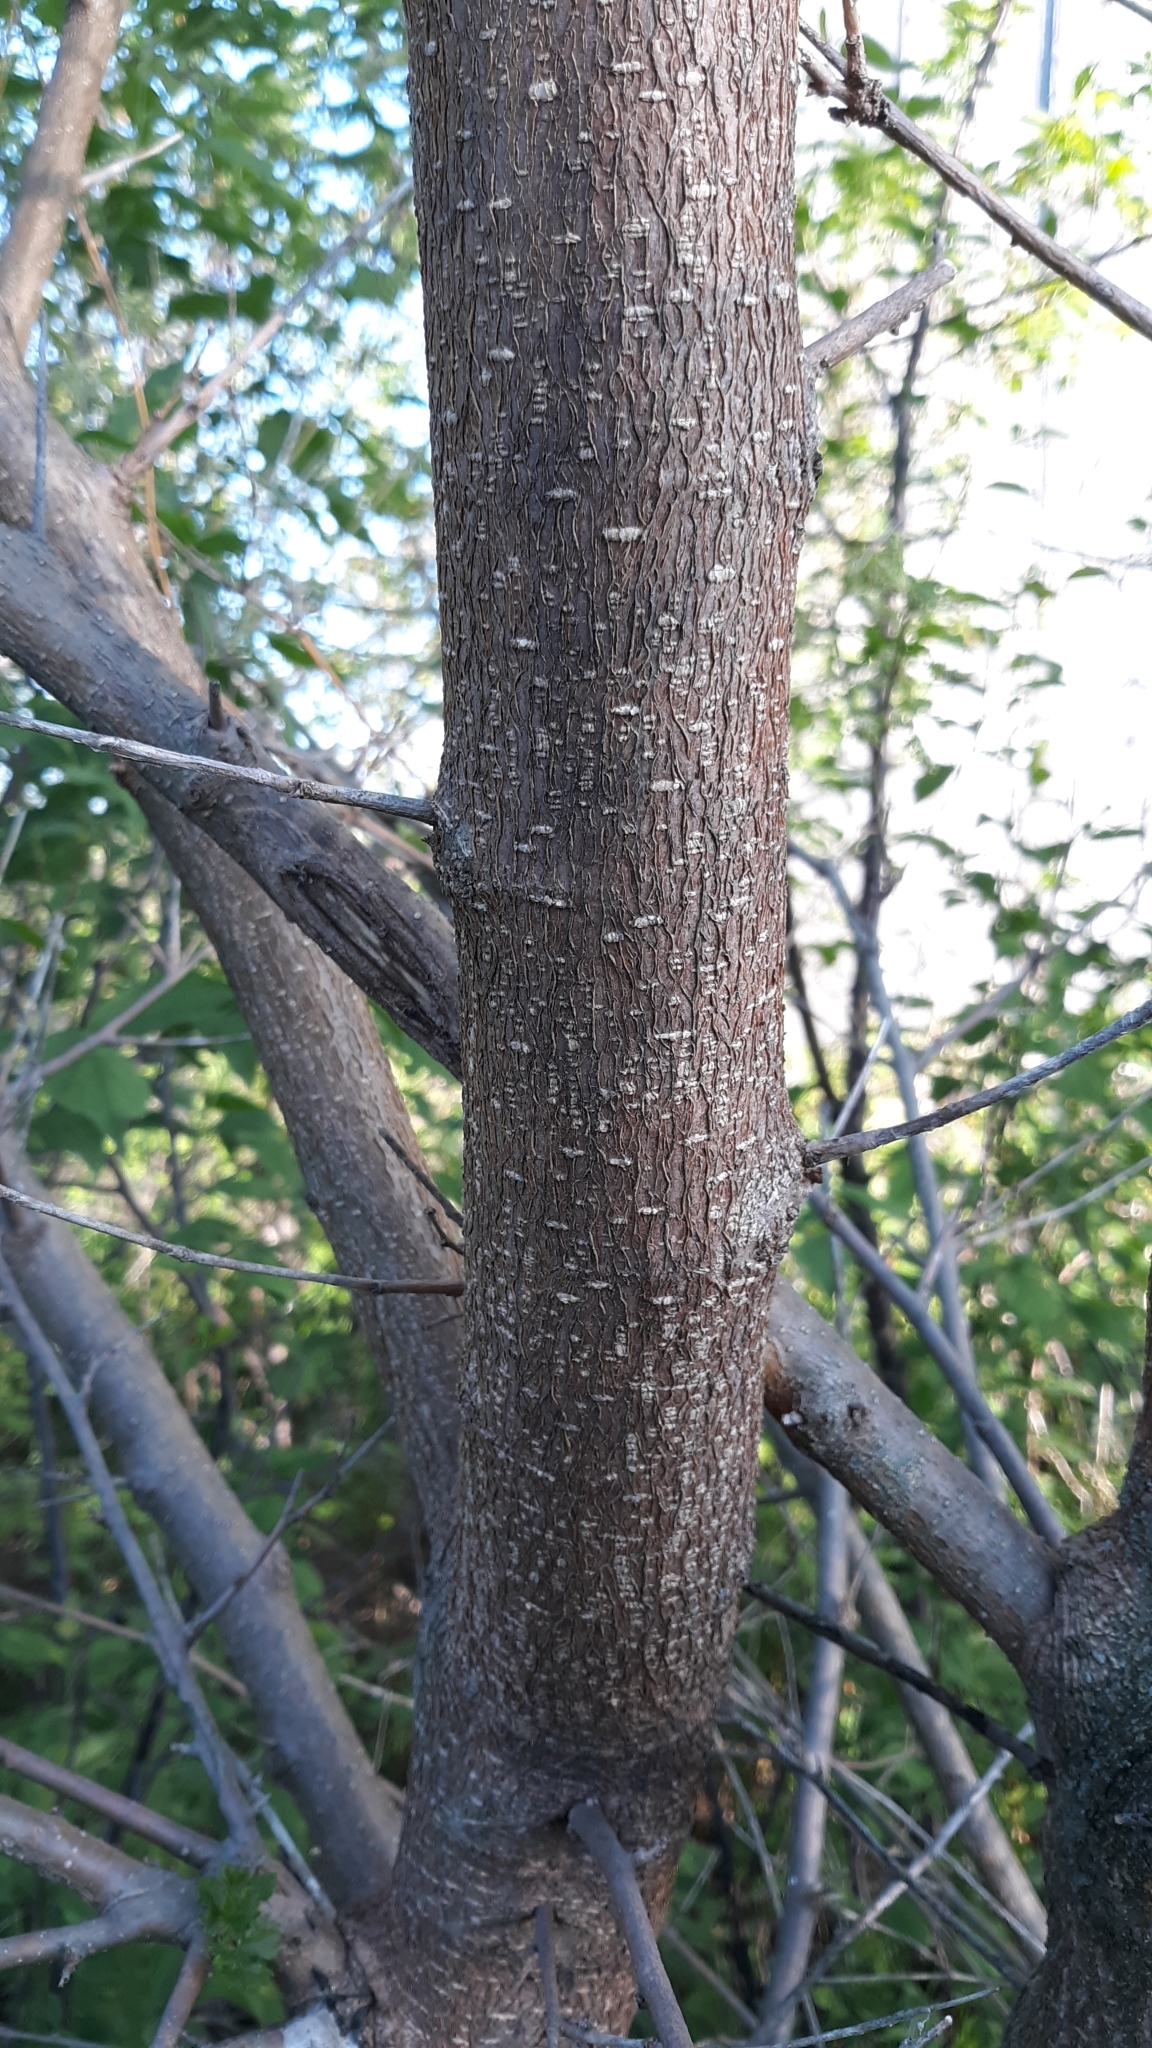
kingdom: Plantae
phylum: Tracheophyta
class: Magnoliopsida
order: Rosales
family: Moraceae
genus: Morus
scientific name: Morus alba
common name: White mulberry
